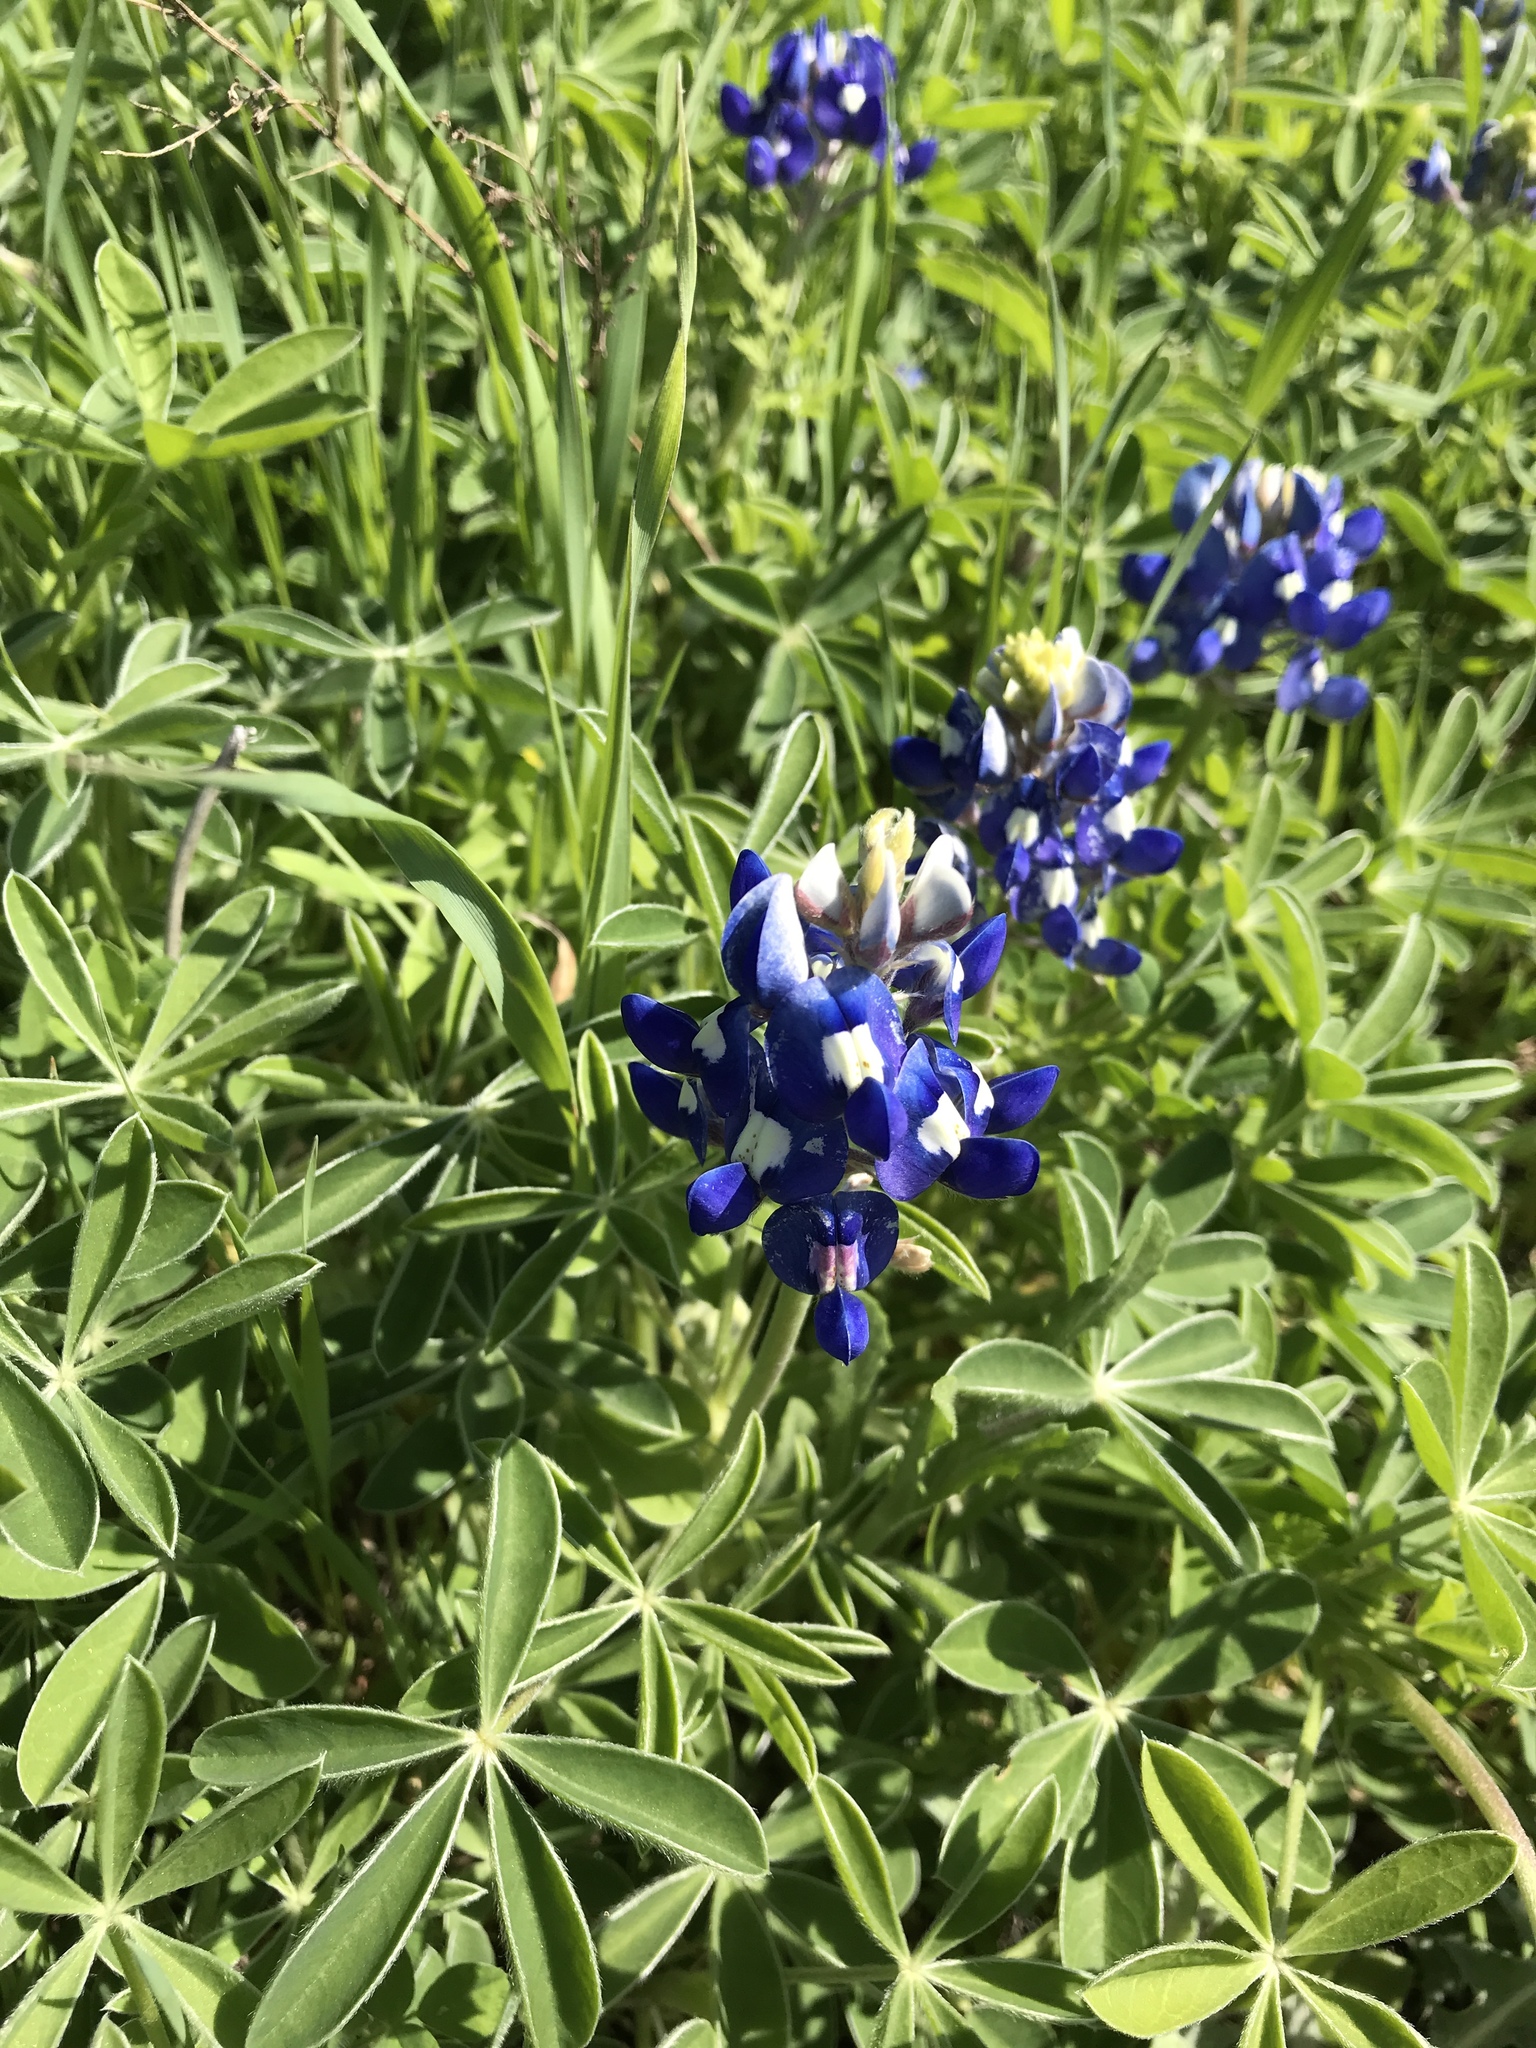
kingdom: Plantae
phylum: Tracheophyta
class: Magnoliopsida
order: Fabales
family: Fabaceae
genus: Lupinus
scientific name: Lupinus texensis
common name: Texas bluebonnet
